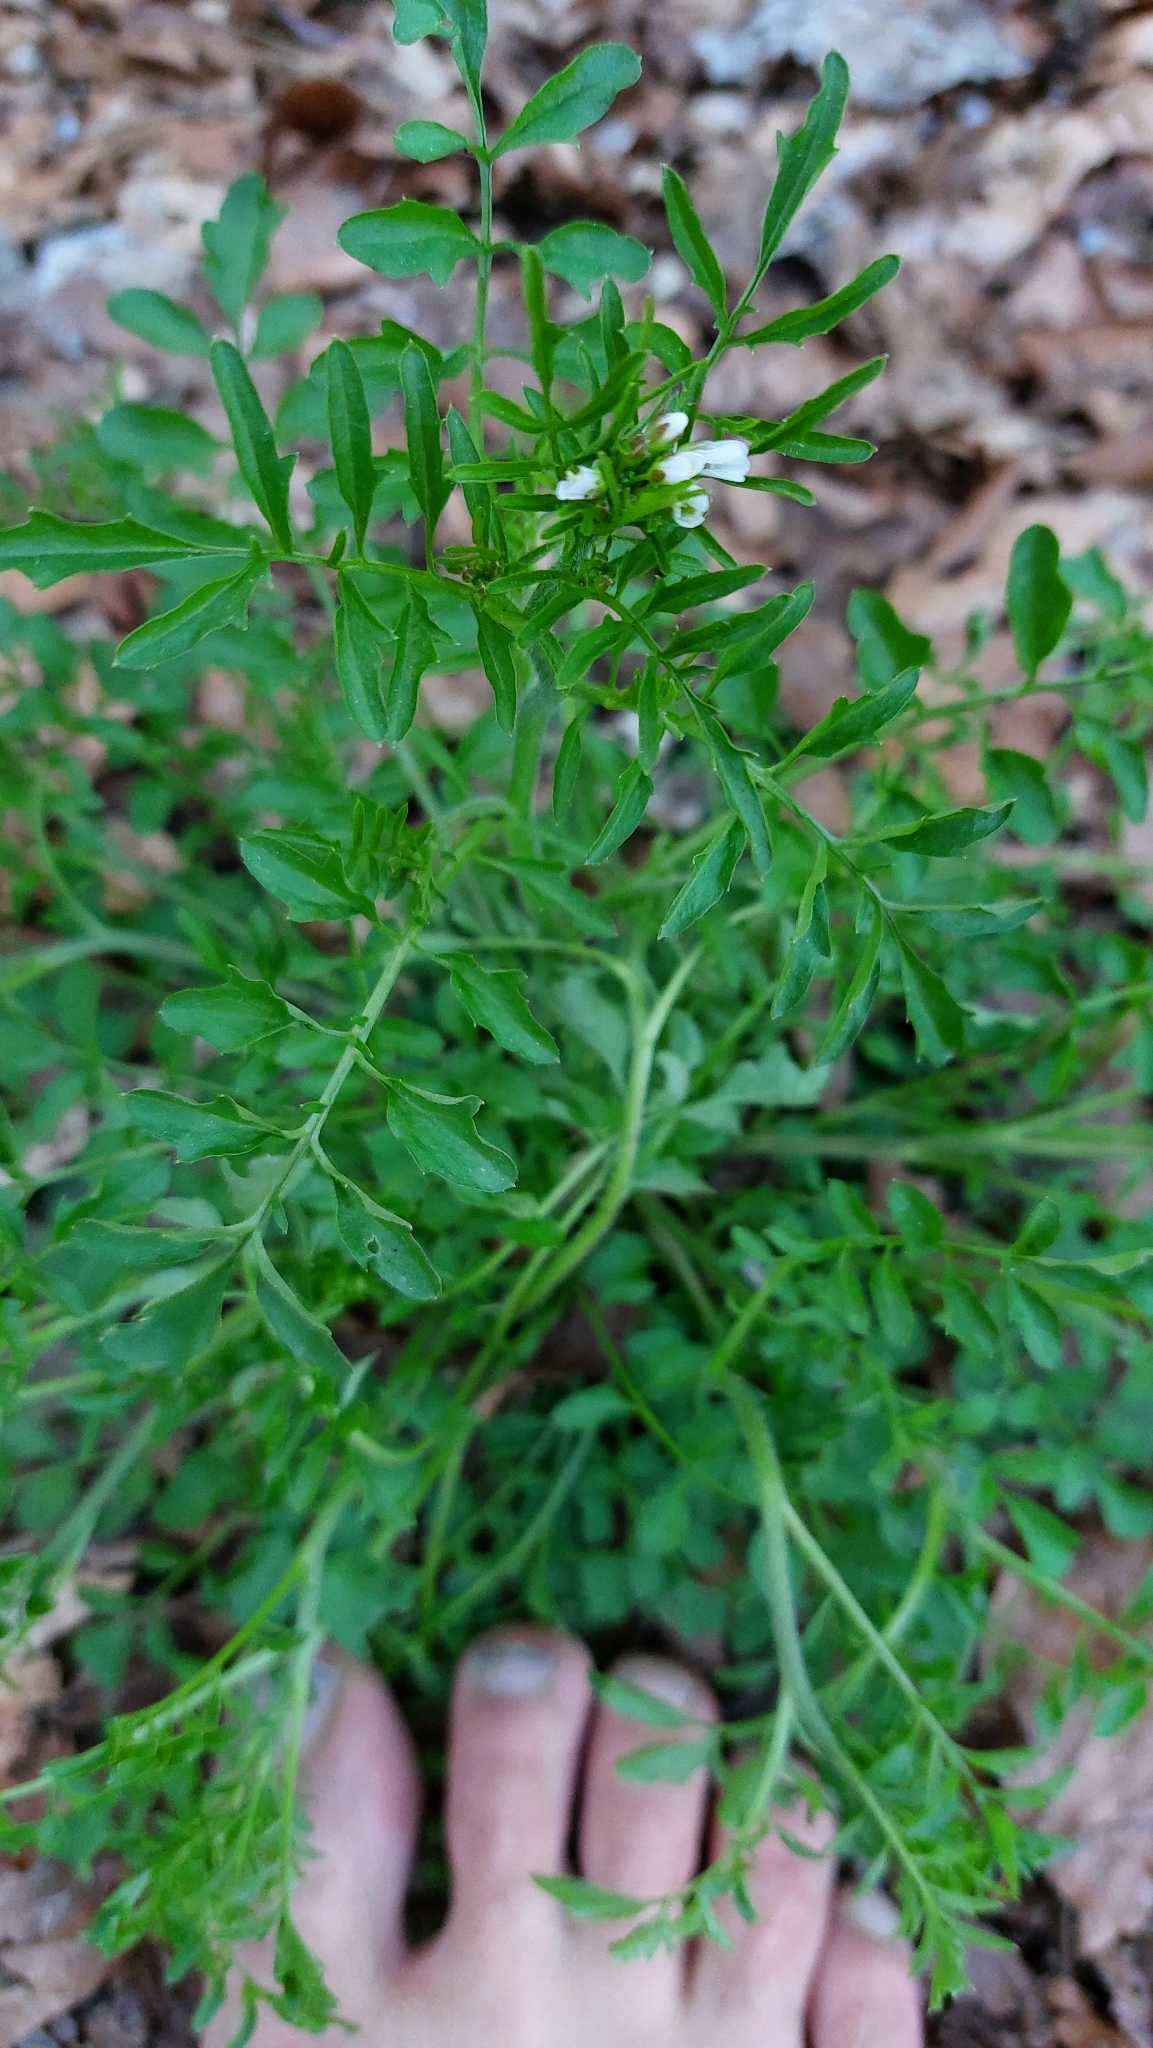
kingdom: Plantae
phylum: Tracheophyta
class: Magnoliopsida
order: Brassicales
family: Brassicaceae
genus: Cardamine
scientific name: Cardamine flexuosa
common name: Woodland bittercress
